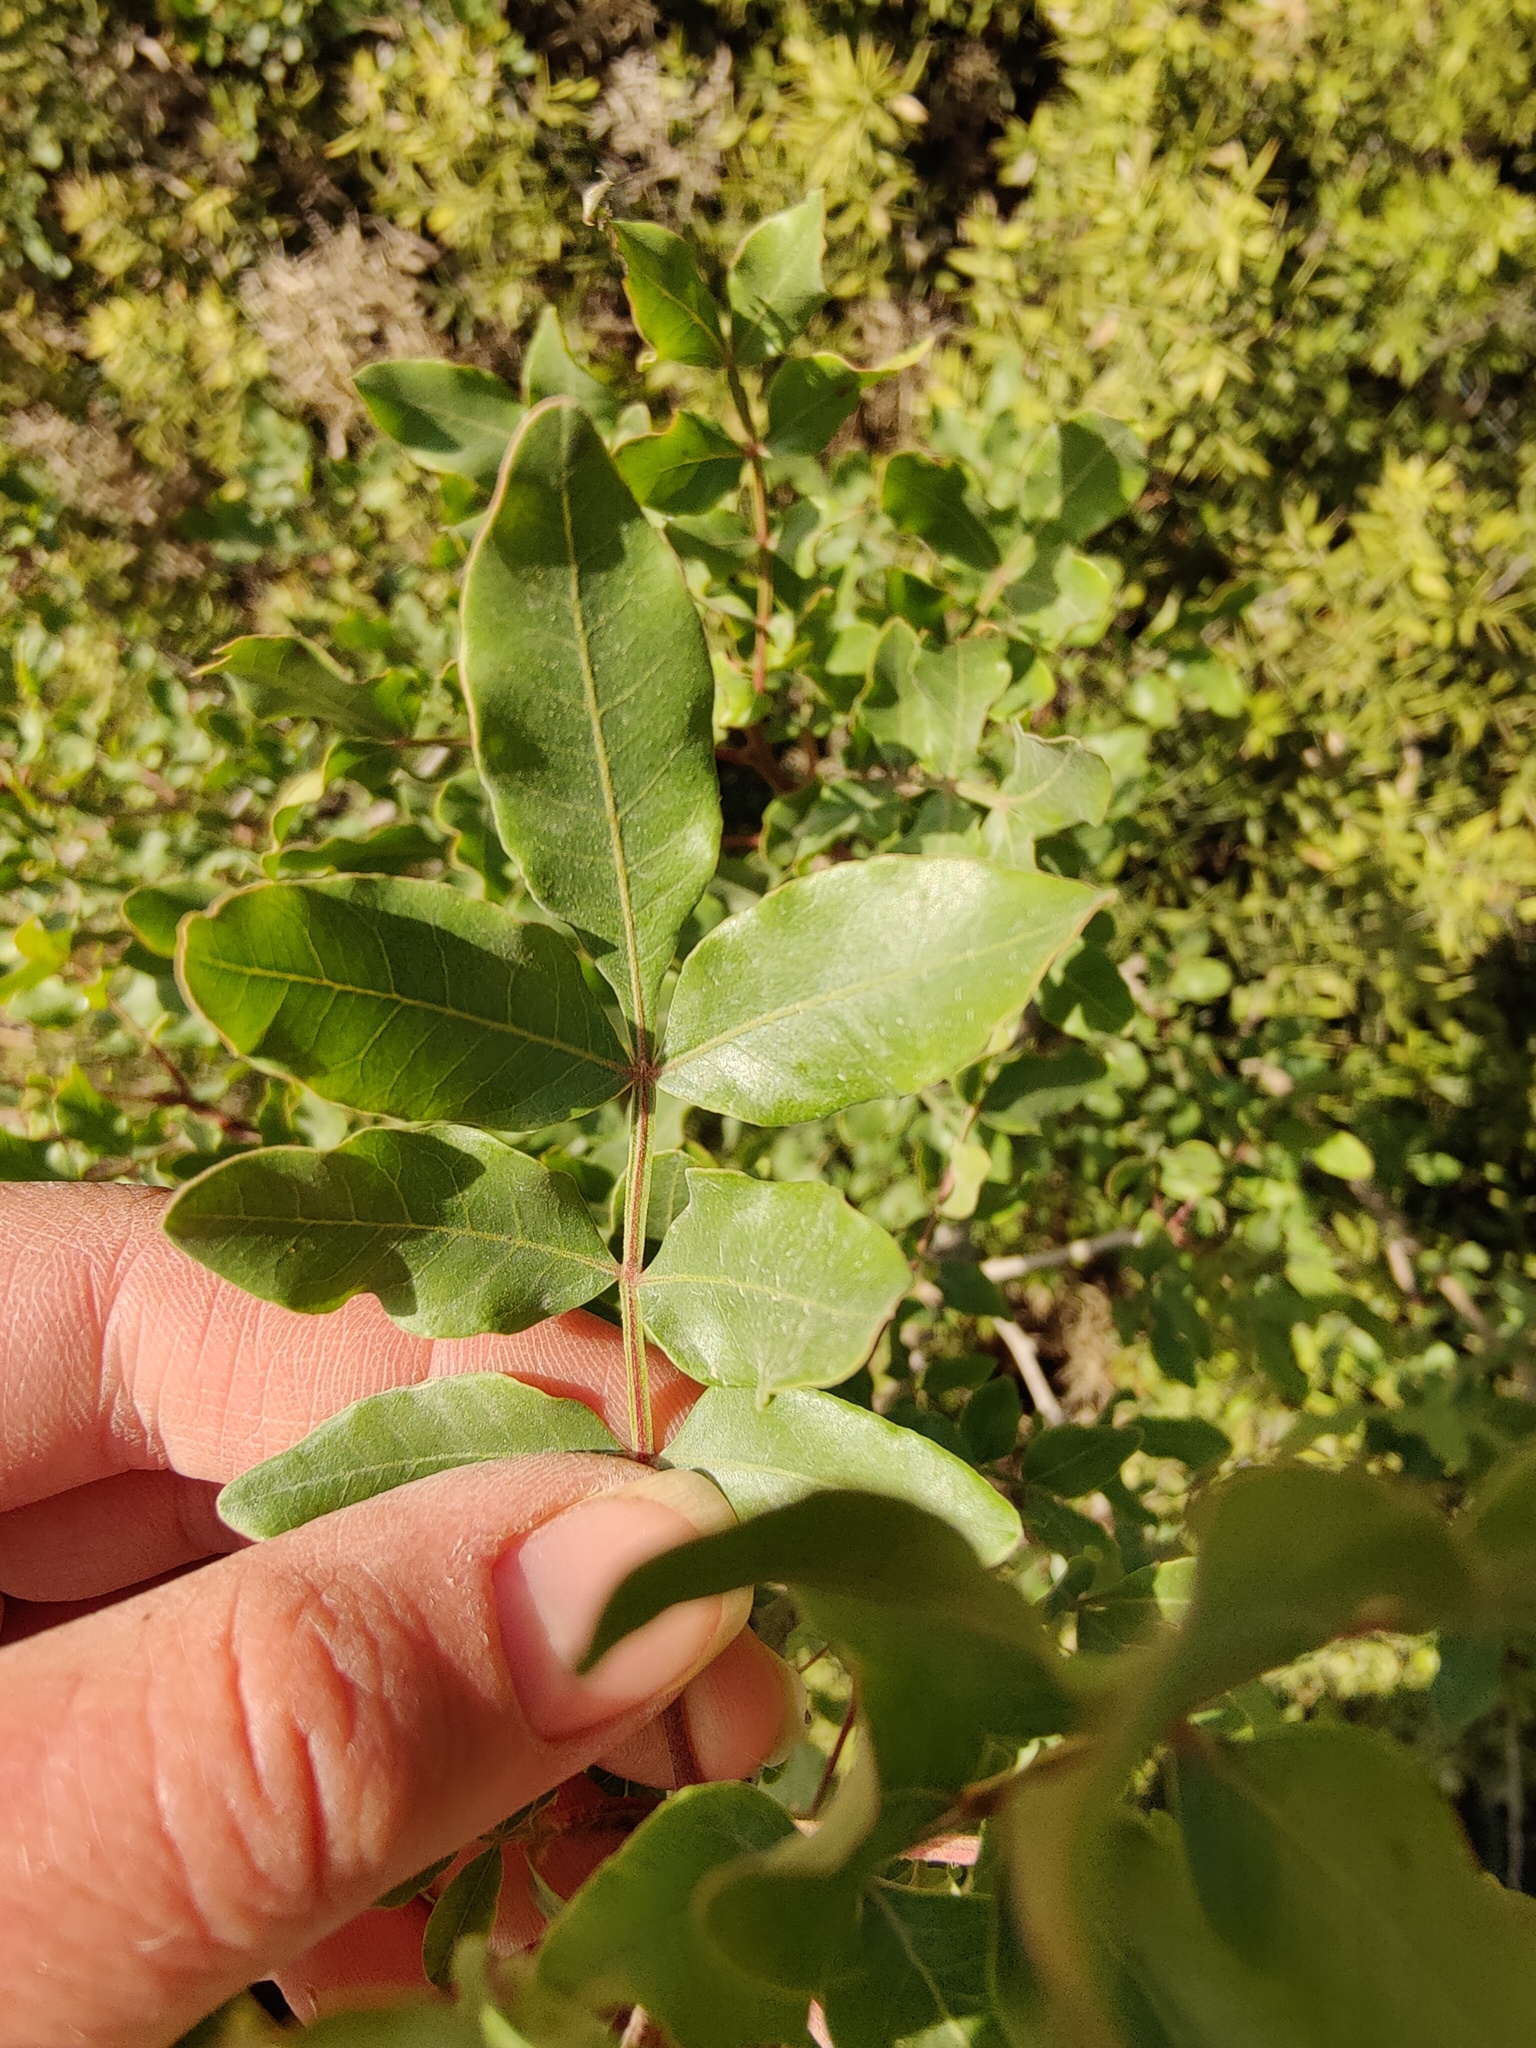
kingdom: Plantae
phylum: Tracheophyta
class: Magnoliopsida
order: Sapindales
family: Anacardiaceae
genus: Pistacia
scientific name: Pistacia atlantica
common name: Mt. atlas mastic tree
